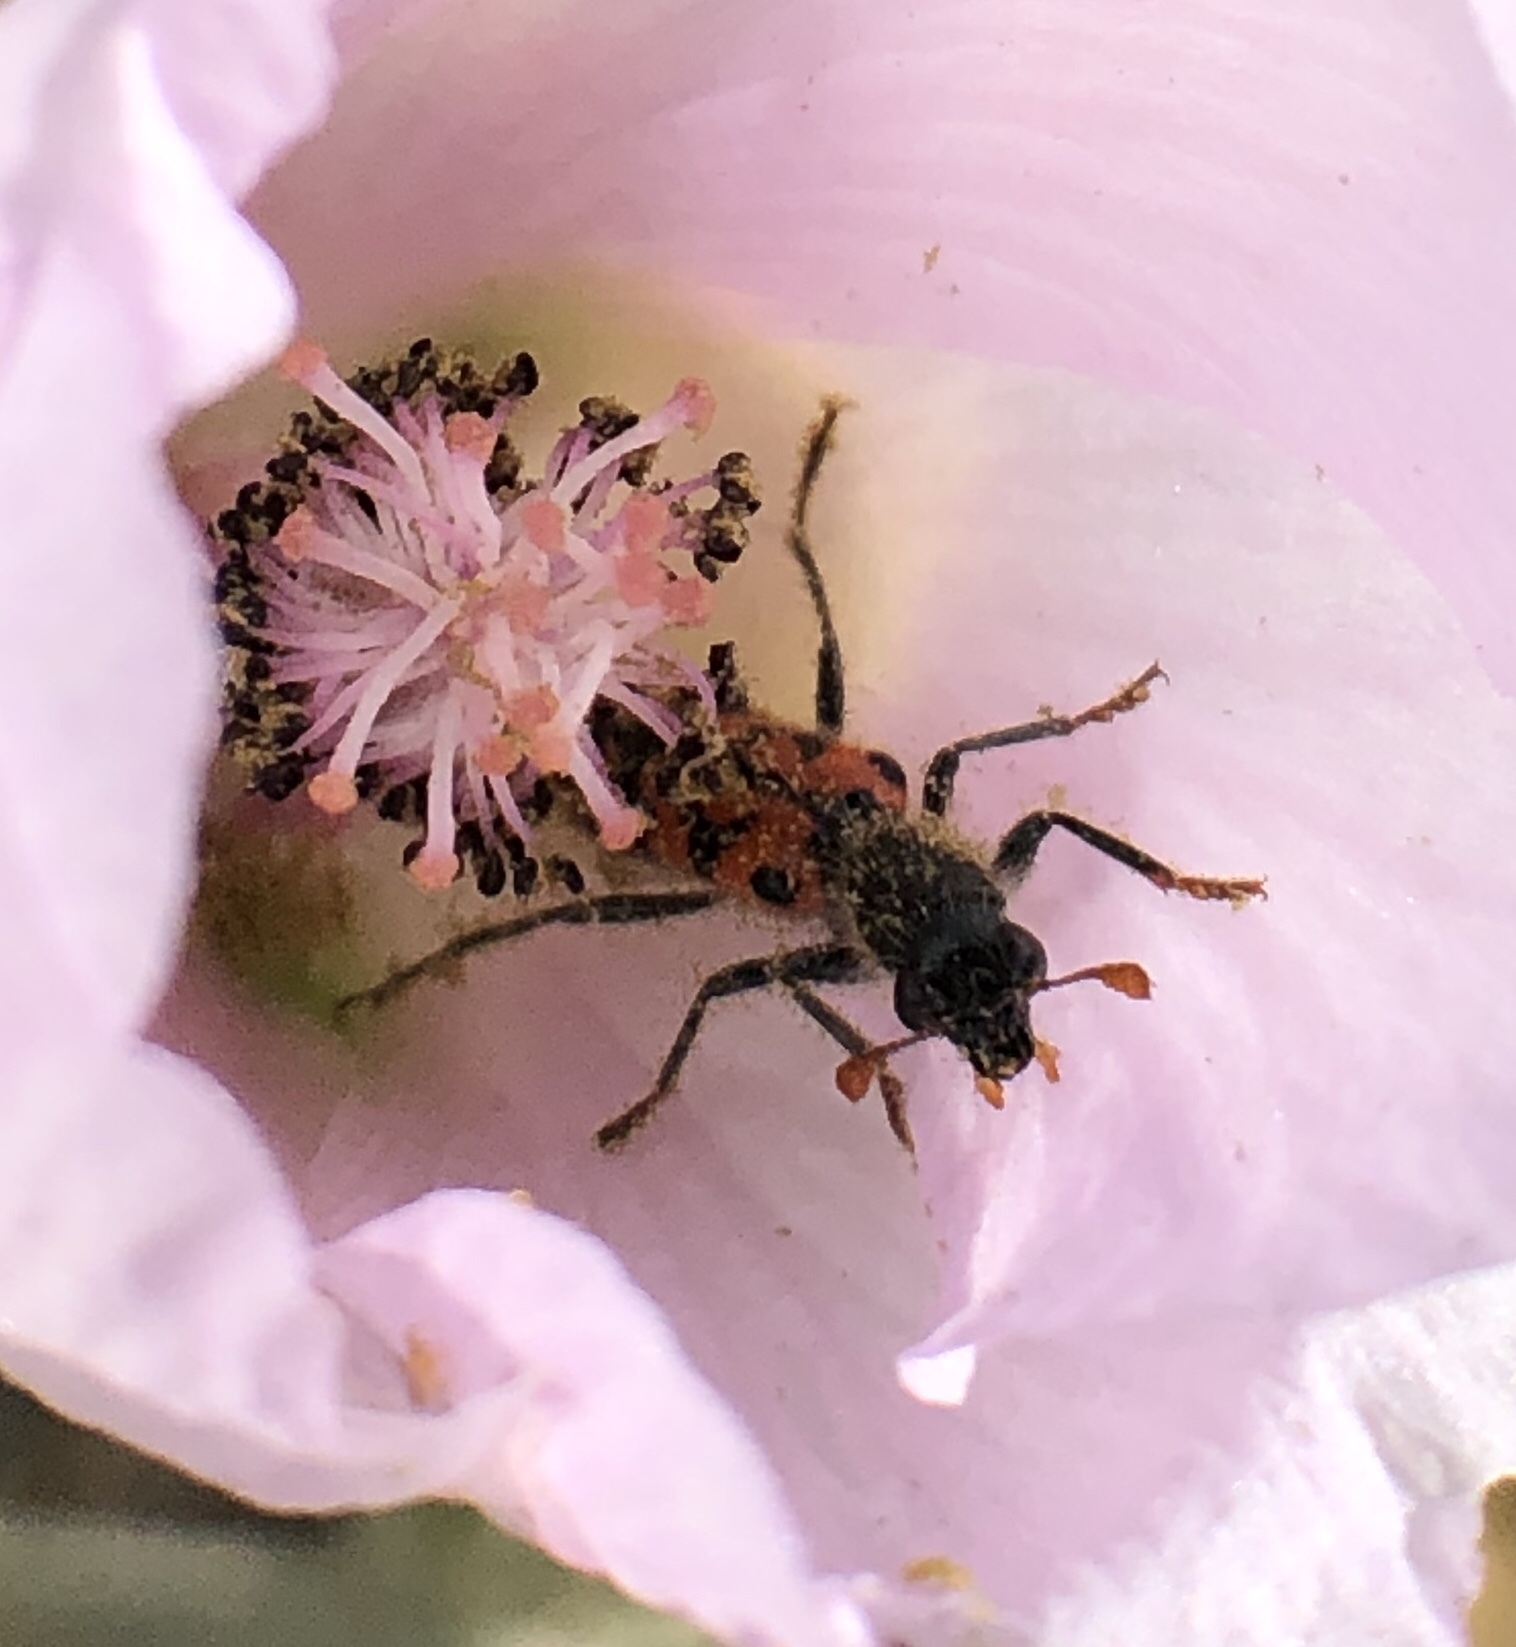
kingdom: Animalia
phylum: Arthropoda
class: Insecta
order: Coleoptera
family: Cleridae
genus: Trichodes
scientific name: Trichodes ornatus
